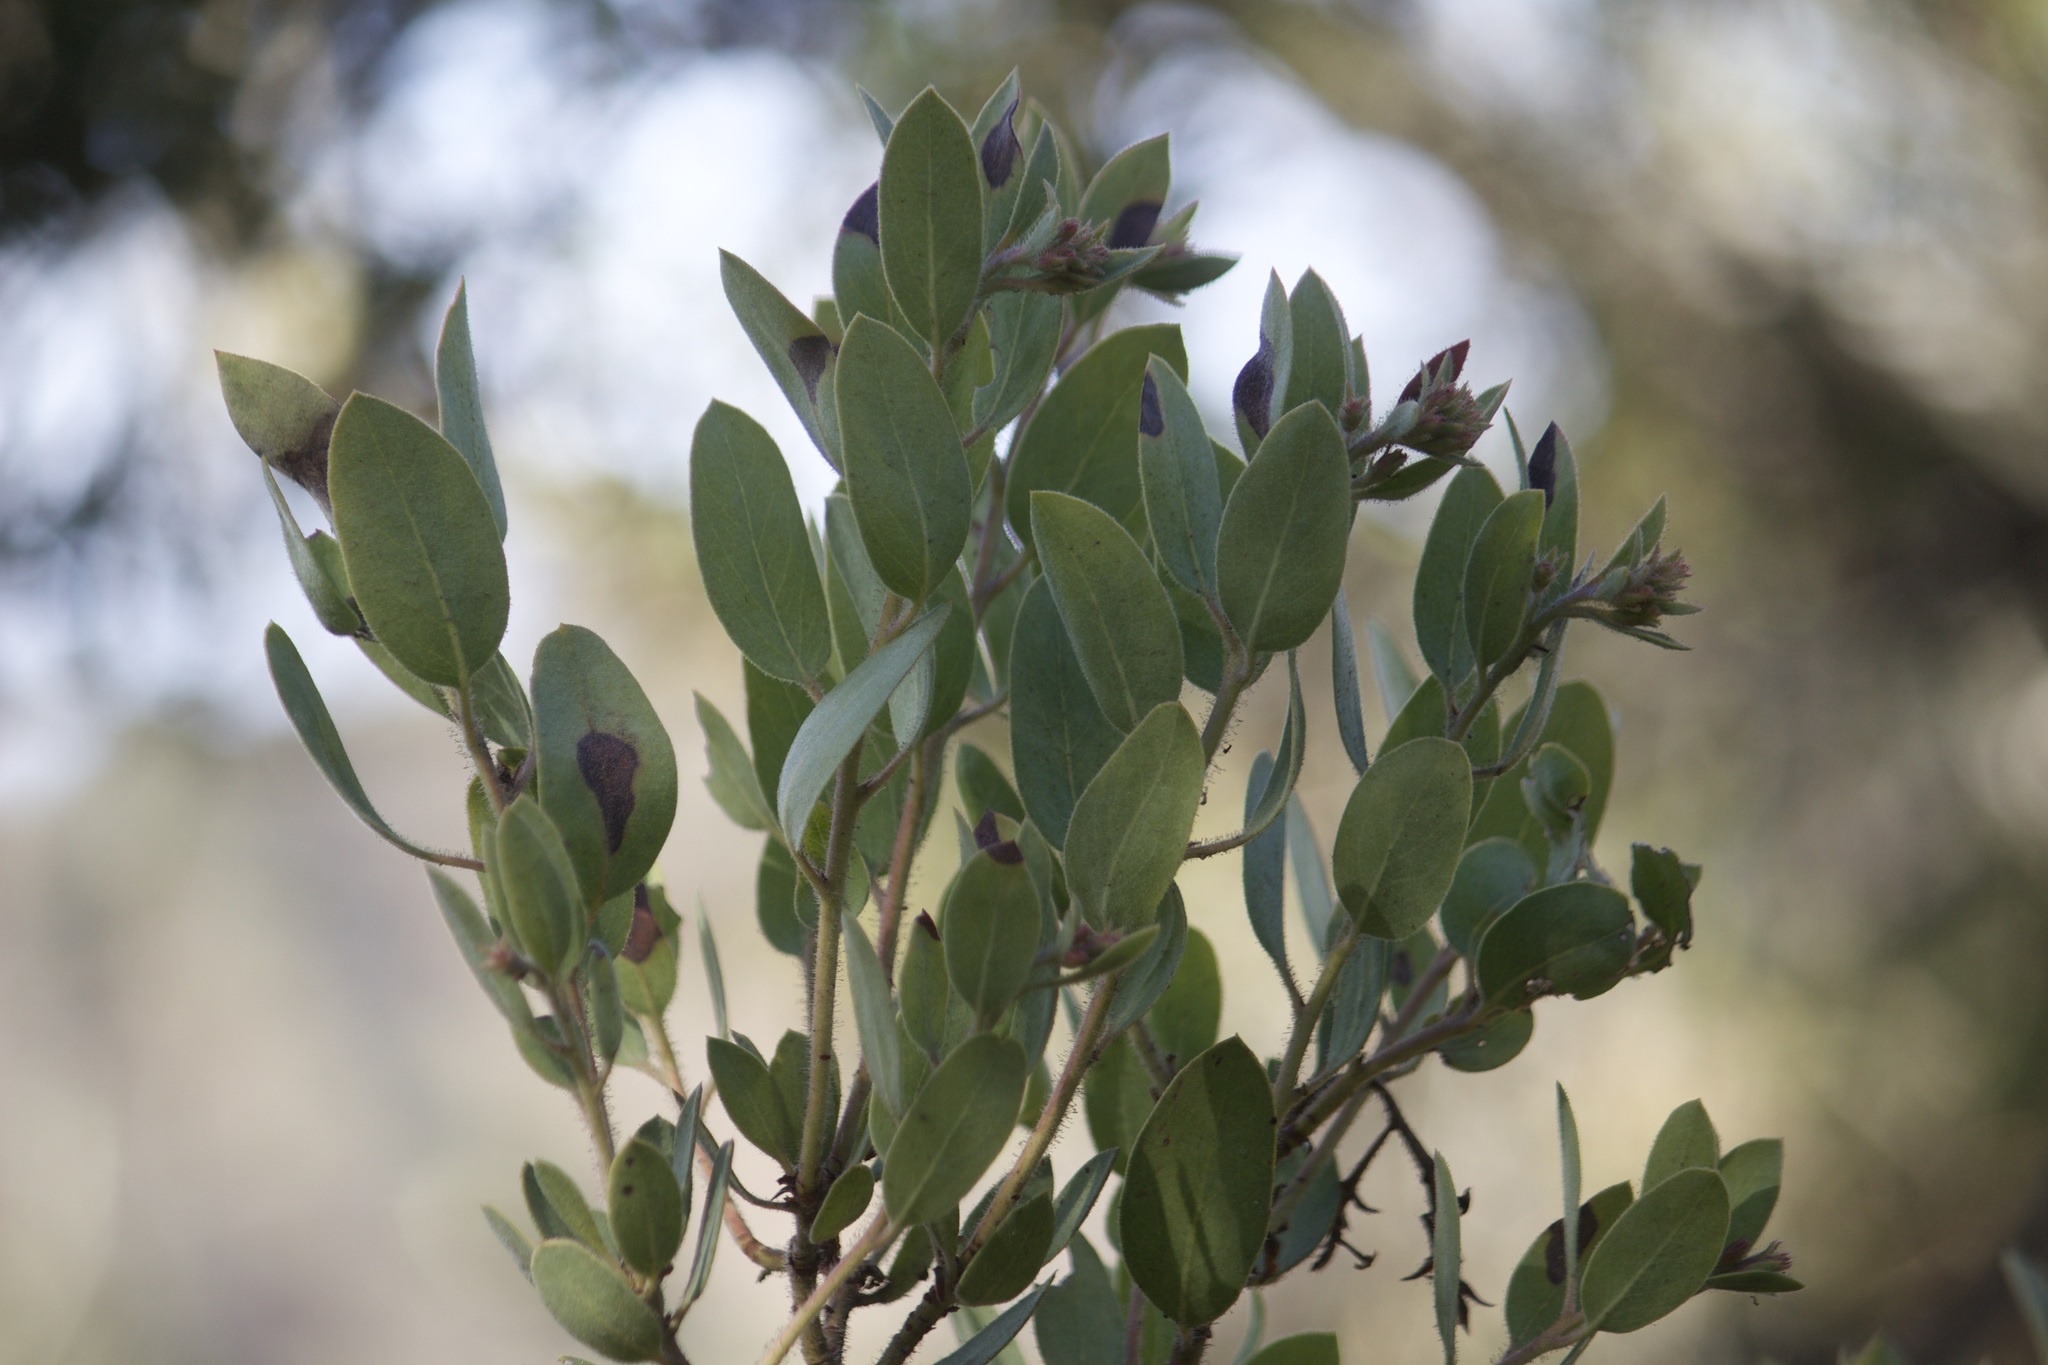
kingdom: Plantae
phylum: Tracheophyta
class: Magnoliopsida
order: Ericales
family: Ericaceae
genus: Arctostaphylos
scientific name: Arctostaphylos glandulosa
